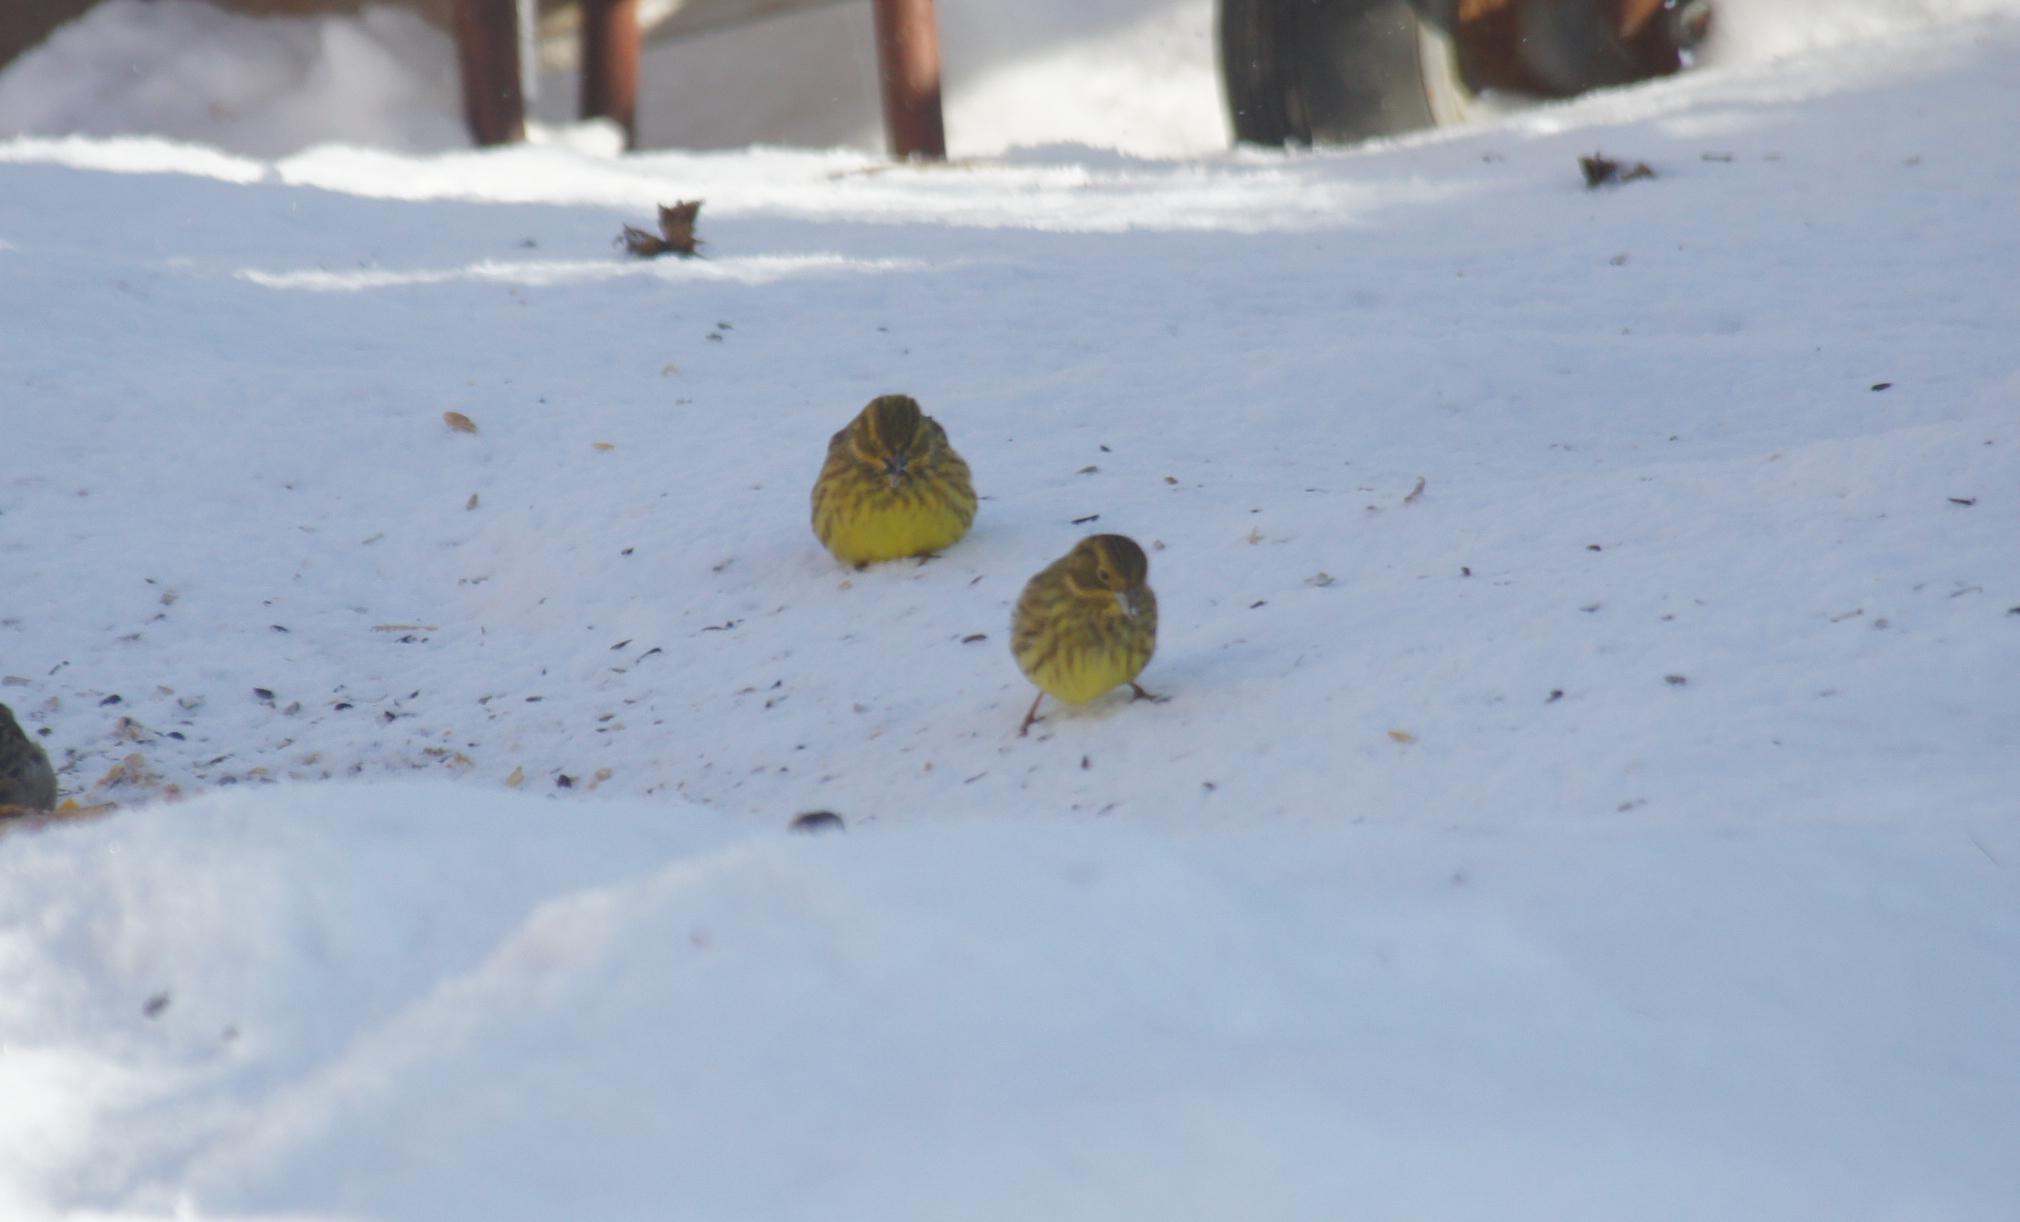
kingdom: Animalia
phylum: Chordata
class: Aves
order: Passeriformes
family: Emberizidae
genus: Emberiza
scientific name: Emberiza citrinella
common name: Yellowhammer
